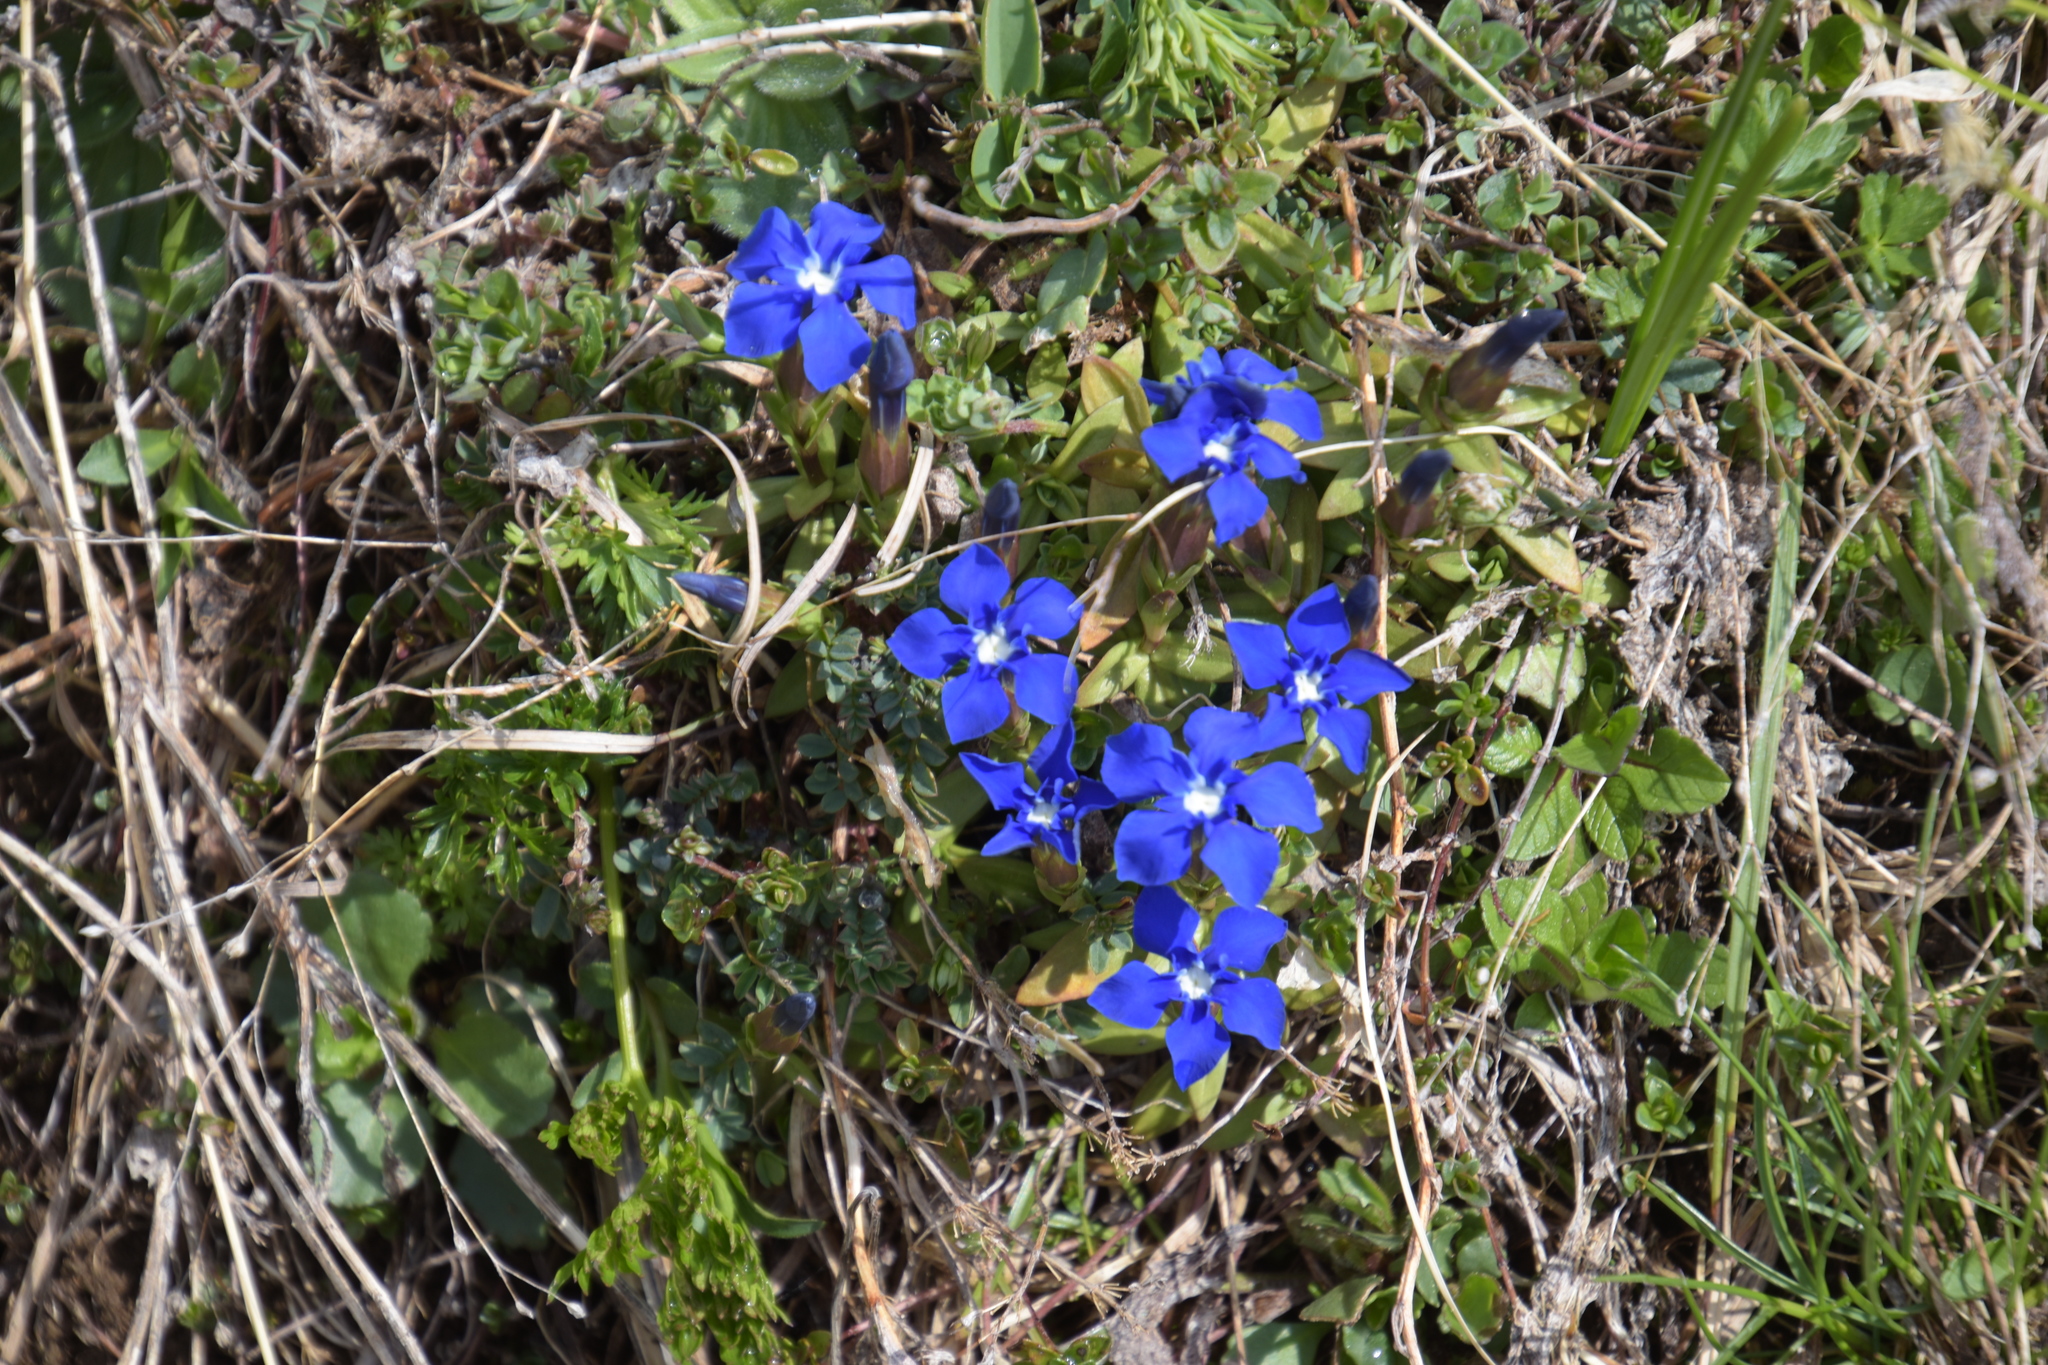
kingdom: Plantae
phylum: Tracheophyta
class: Magnoliopsida
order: Gentianales
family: Gentianaceae
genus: Gentiana
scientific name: Gentiana verna
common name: Spring gentian
